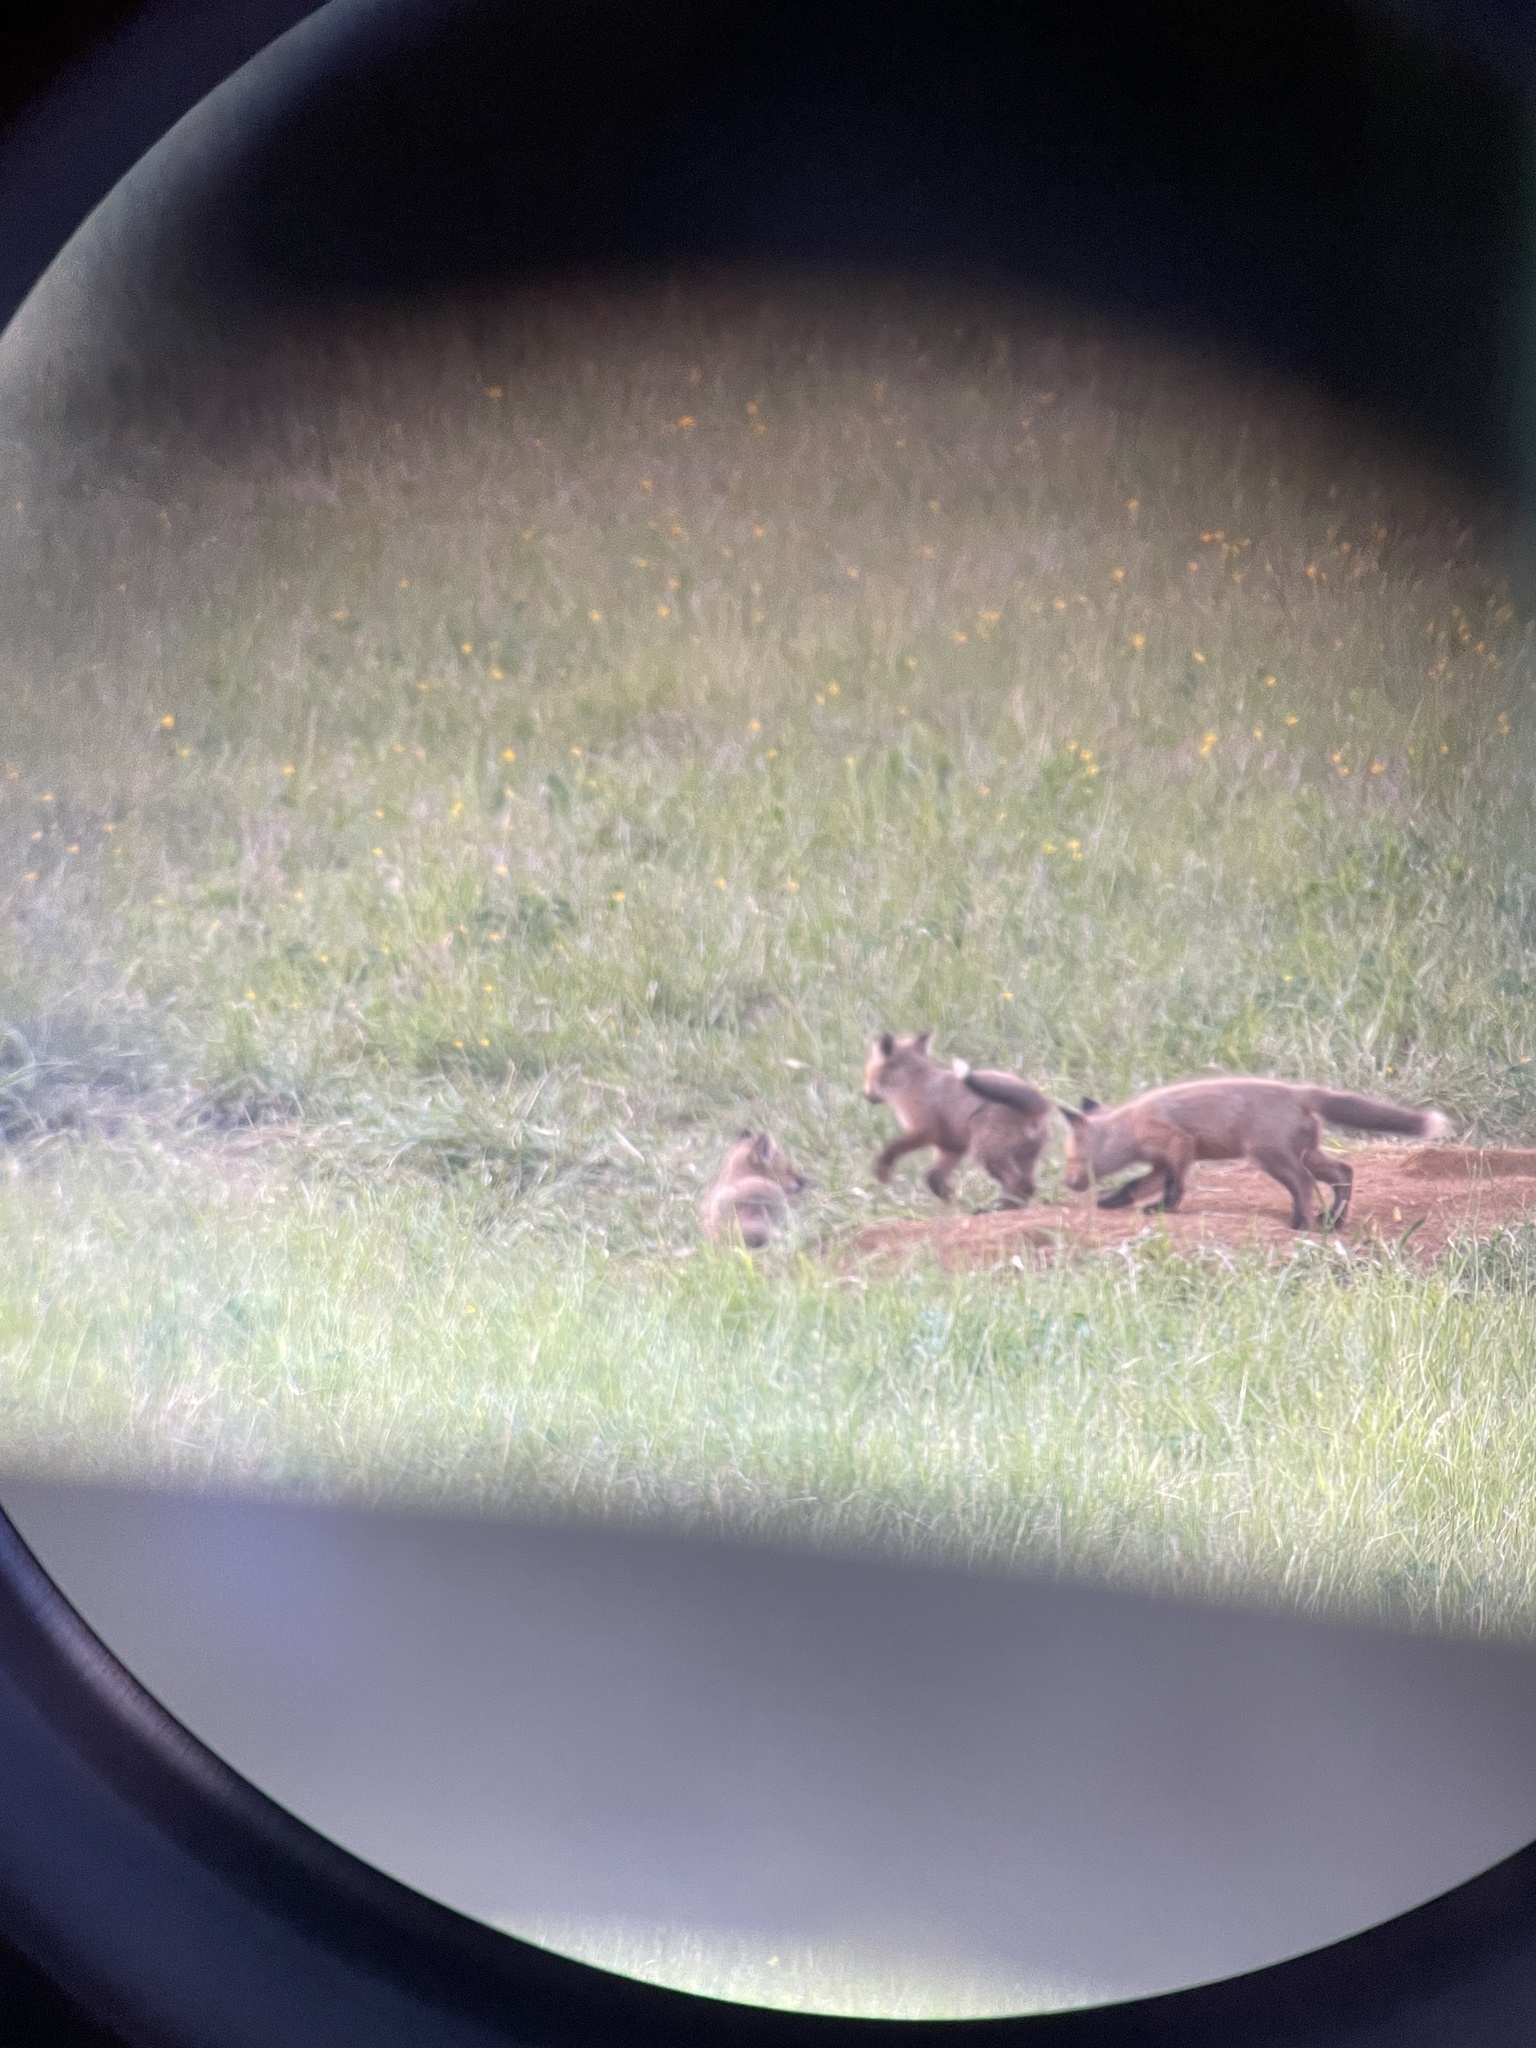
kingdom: Animalia
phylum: Chordata
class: Mammalia
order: Carnivora
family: Canidae
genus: Vulpes
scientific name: Vulpes vulpes
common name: Red fox
